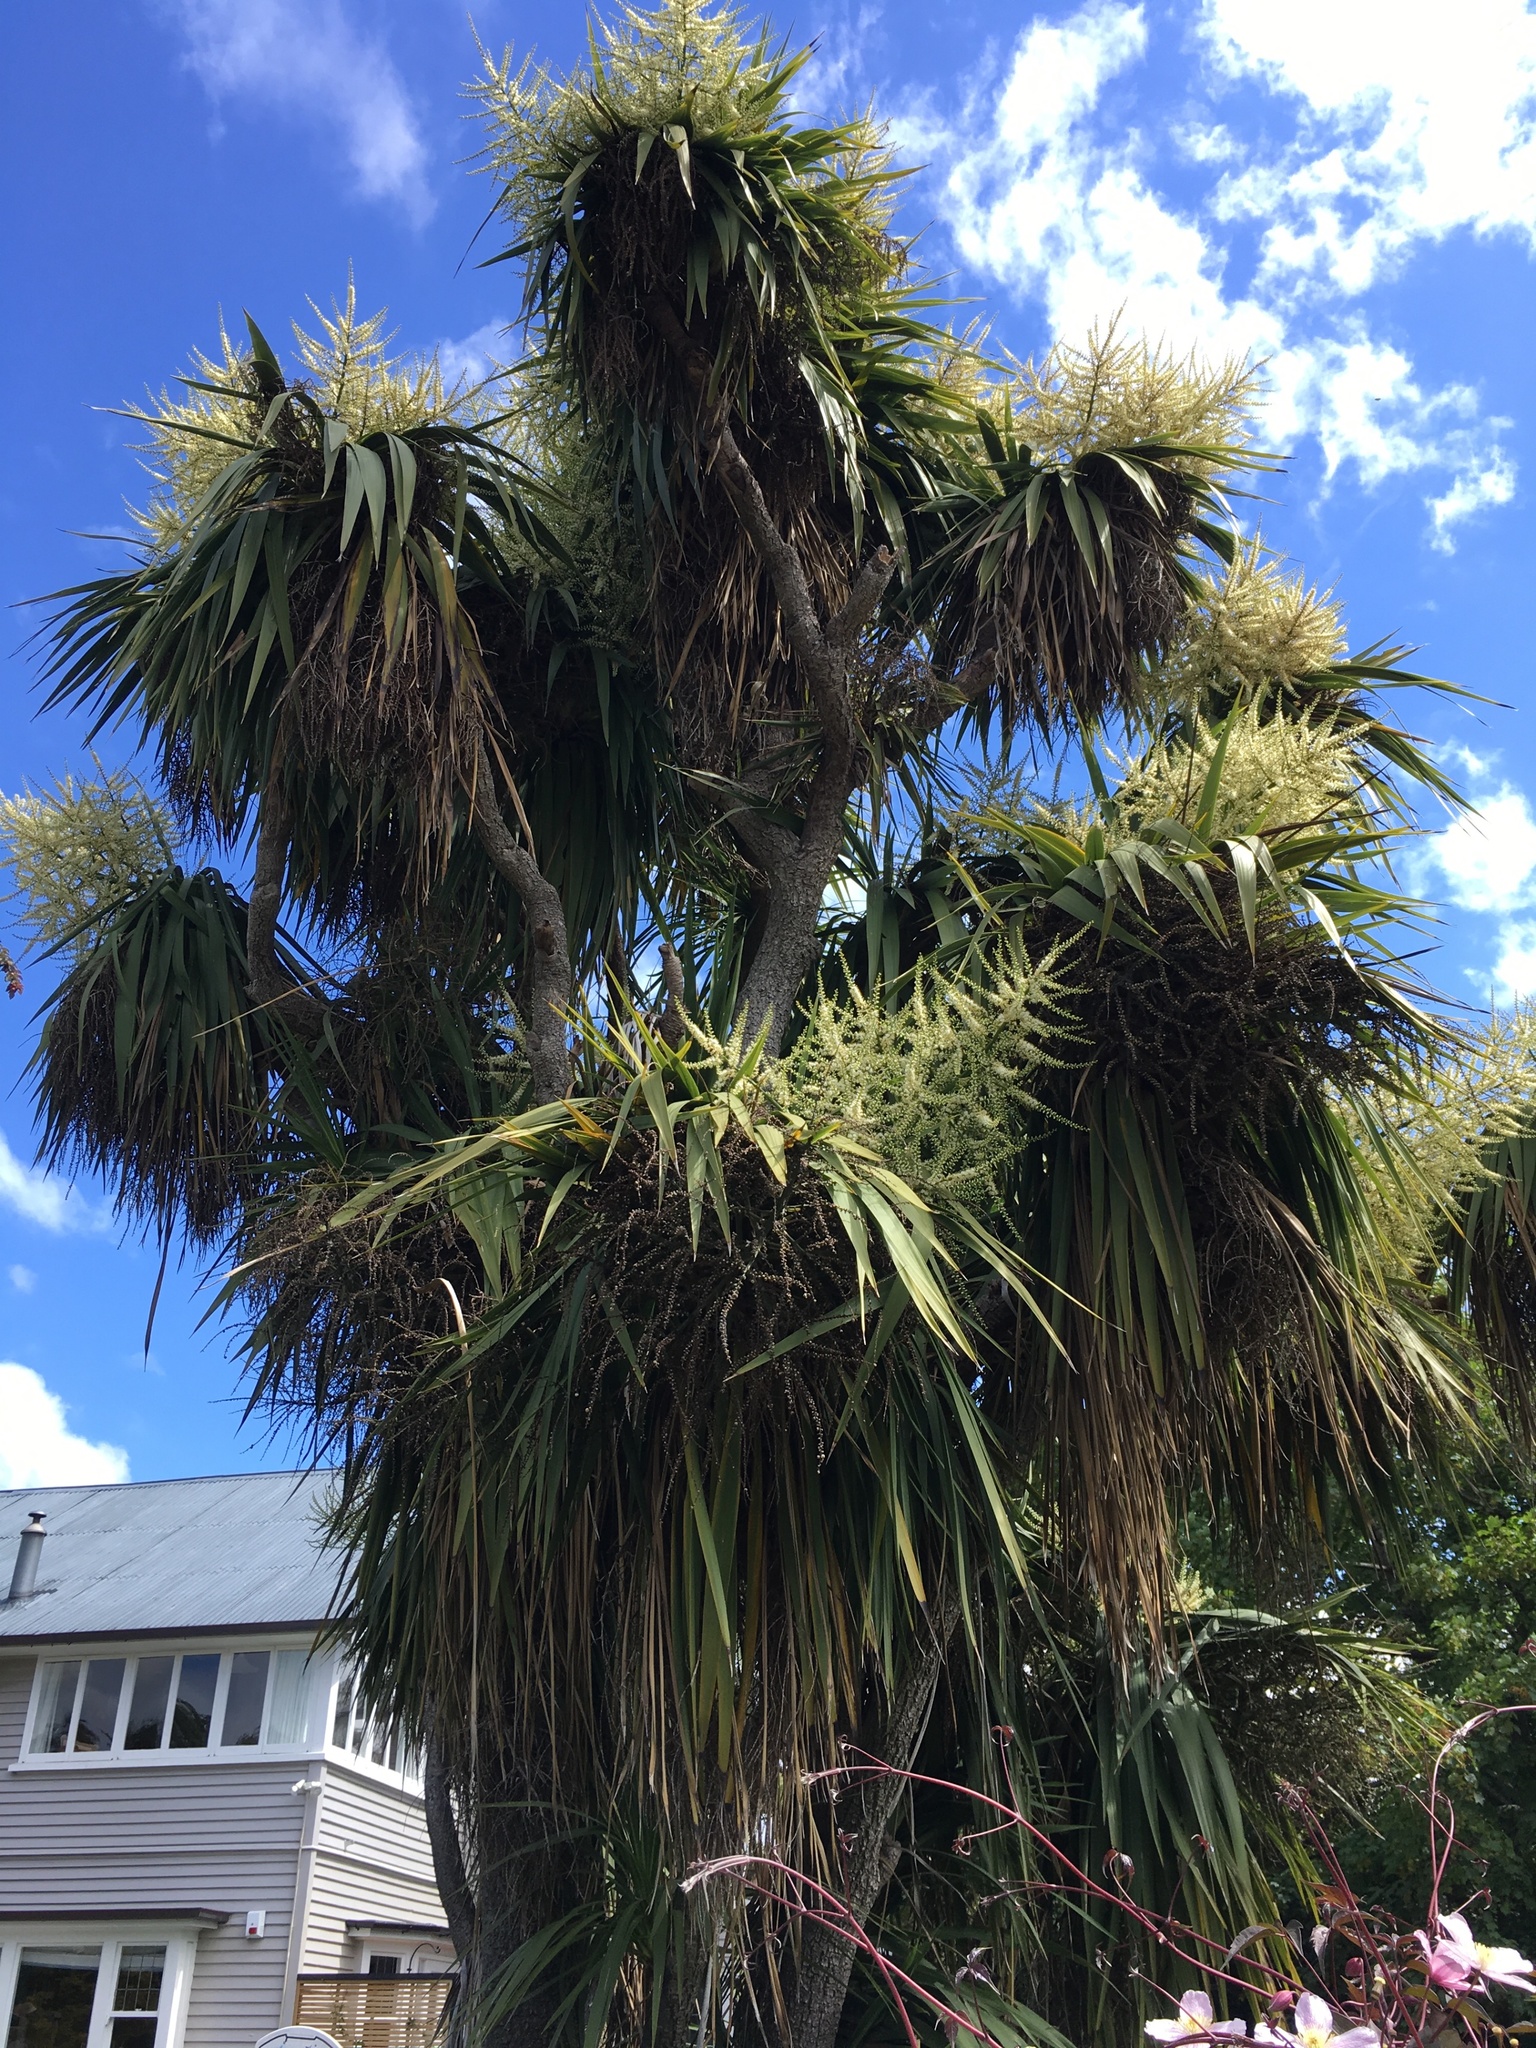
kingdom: Plantae
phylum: Tracheophyta
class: Liliopsida
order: Asparagales
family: Asparagaceae
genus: Cordyline
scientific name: Cordyline australis
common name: Cabbage-palm
